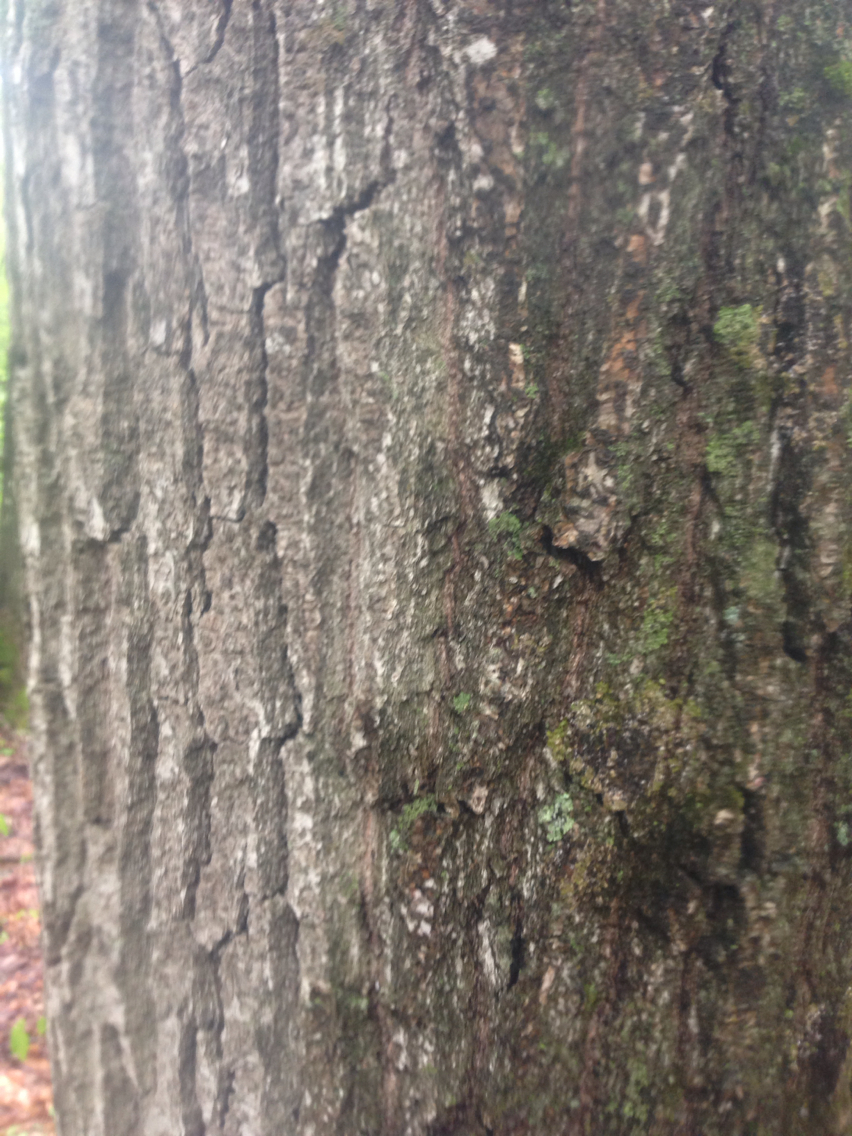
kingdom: Plantae
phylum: Tracheophyta
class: Magnoliopsida
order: Fagales
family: Fagaceae
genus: Quercus
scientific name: Quercus rubra
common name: Red oak
